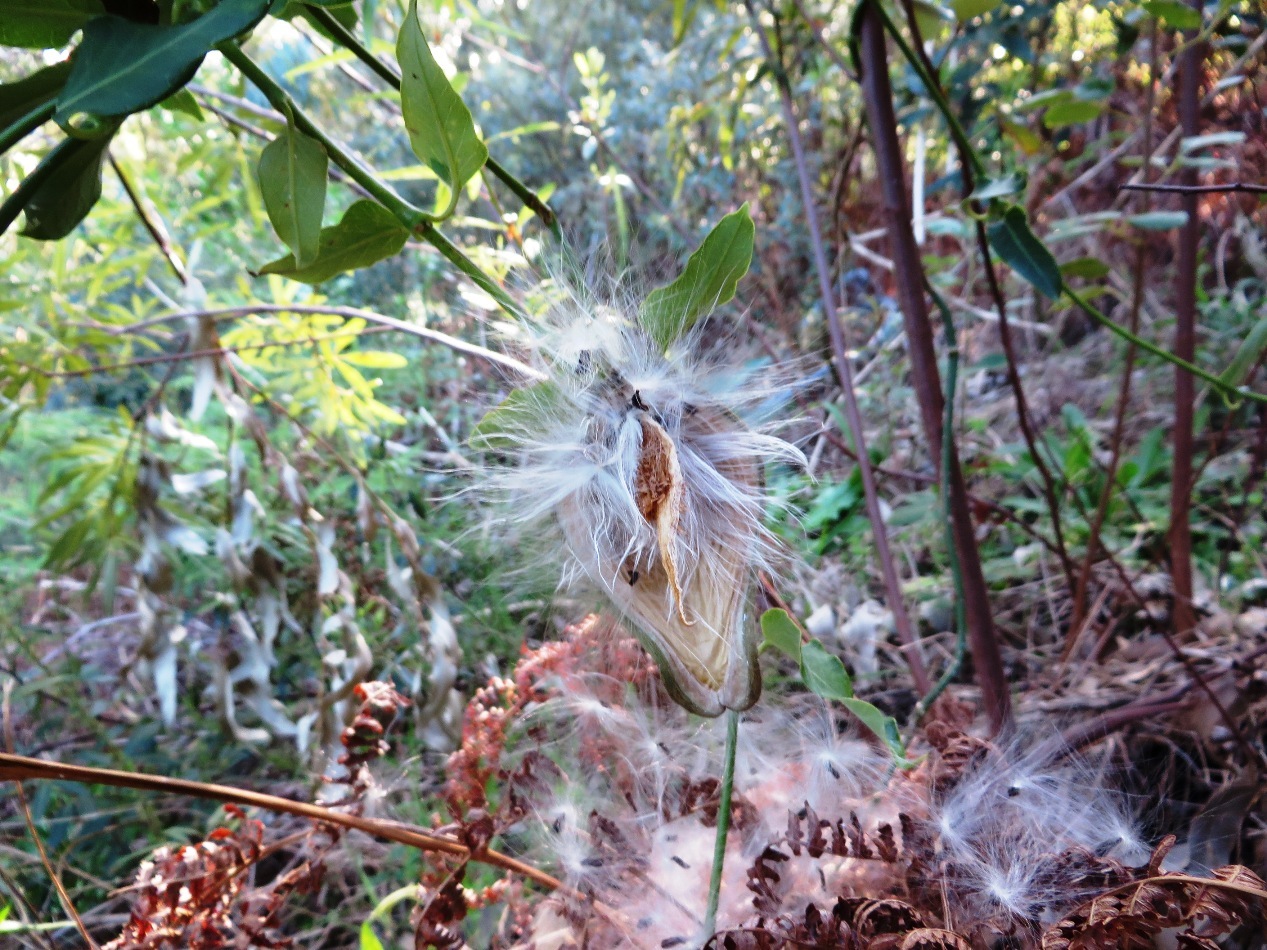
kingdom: Plantae
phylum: Tracheophyta
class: Magnoliopsida
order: Gentianales
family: Apocynaceae
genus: Araujia
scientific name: Araujia sericifera
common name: White bladderflower
